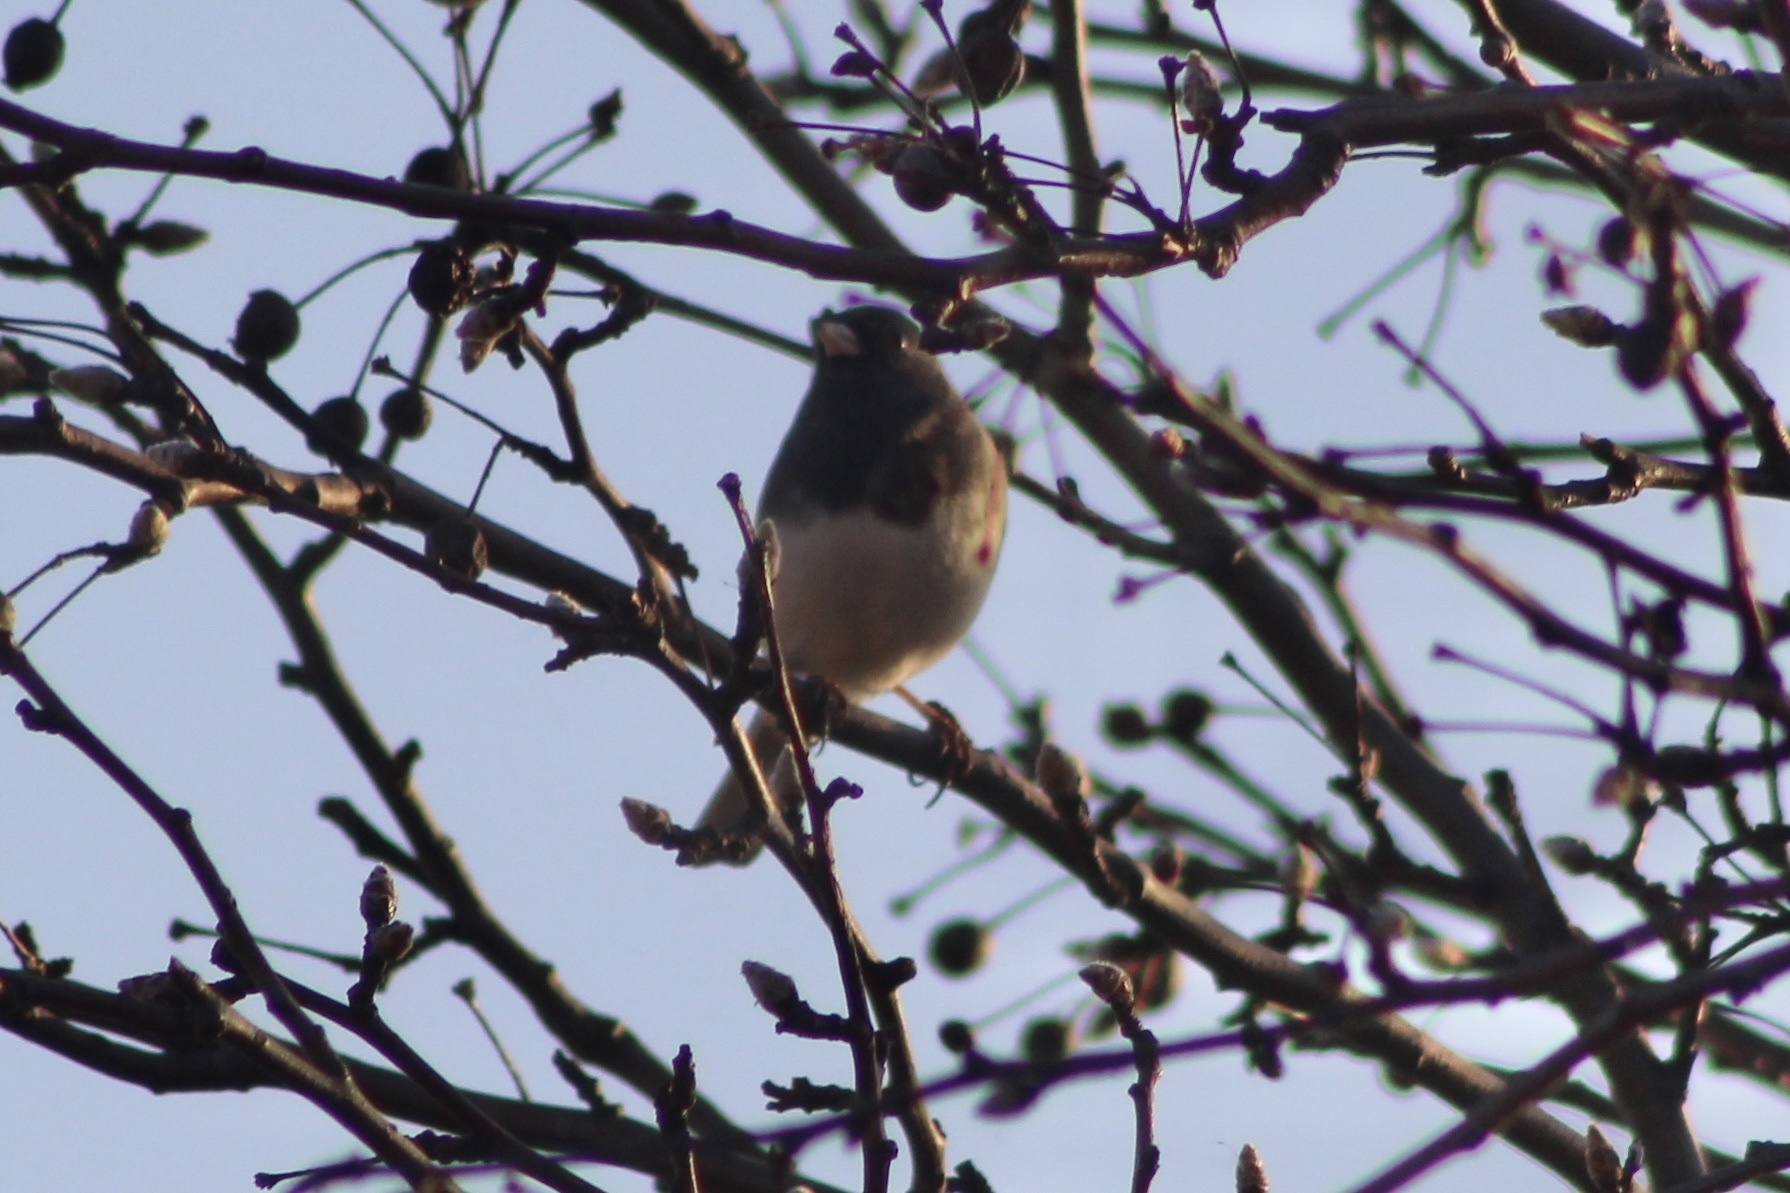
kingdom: Animalia
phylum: Chordata
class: Aves
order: Passeriformes
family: Passerellidae
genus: Junco
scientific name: Junco hyemalis
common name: Dark-eyed junco
